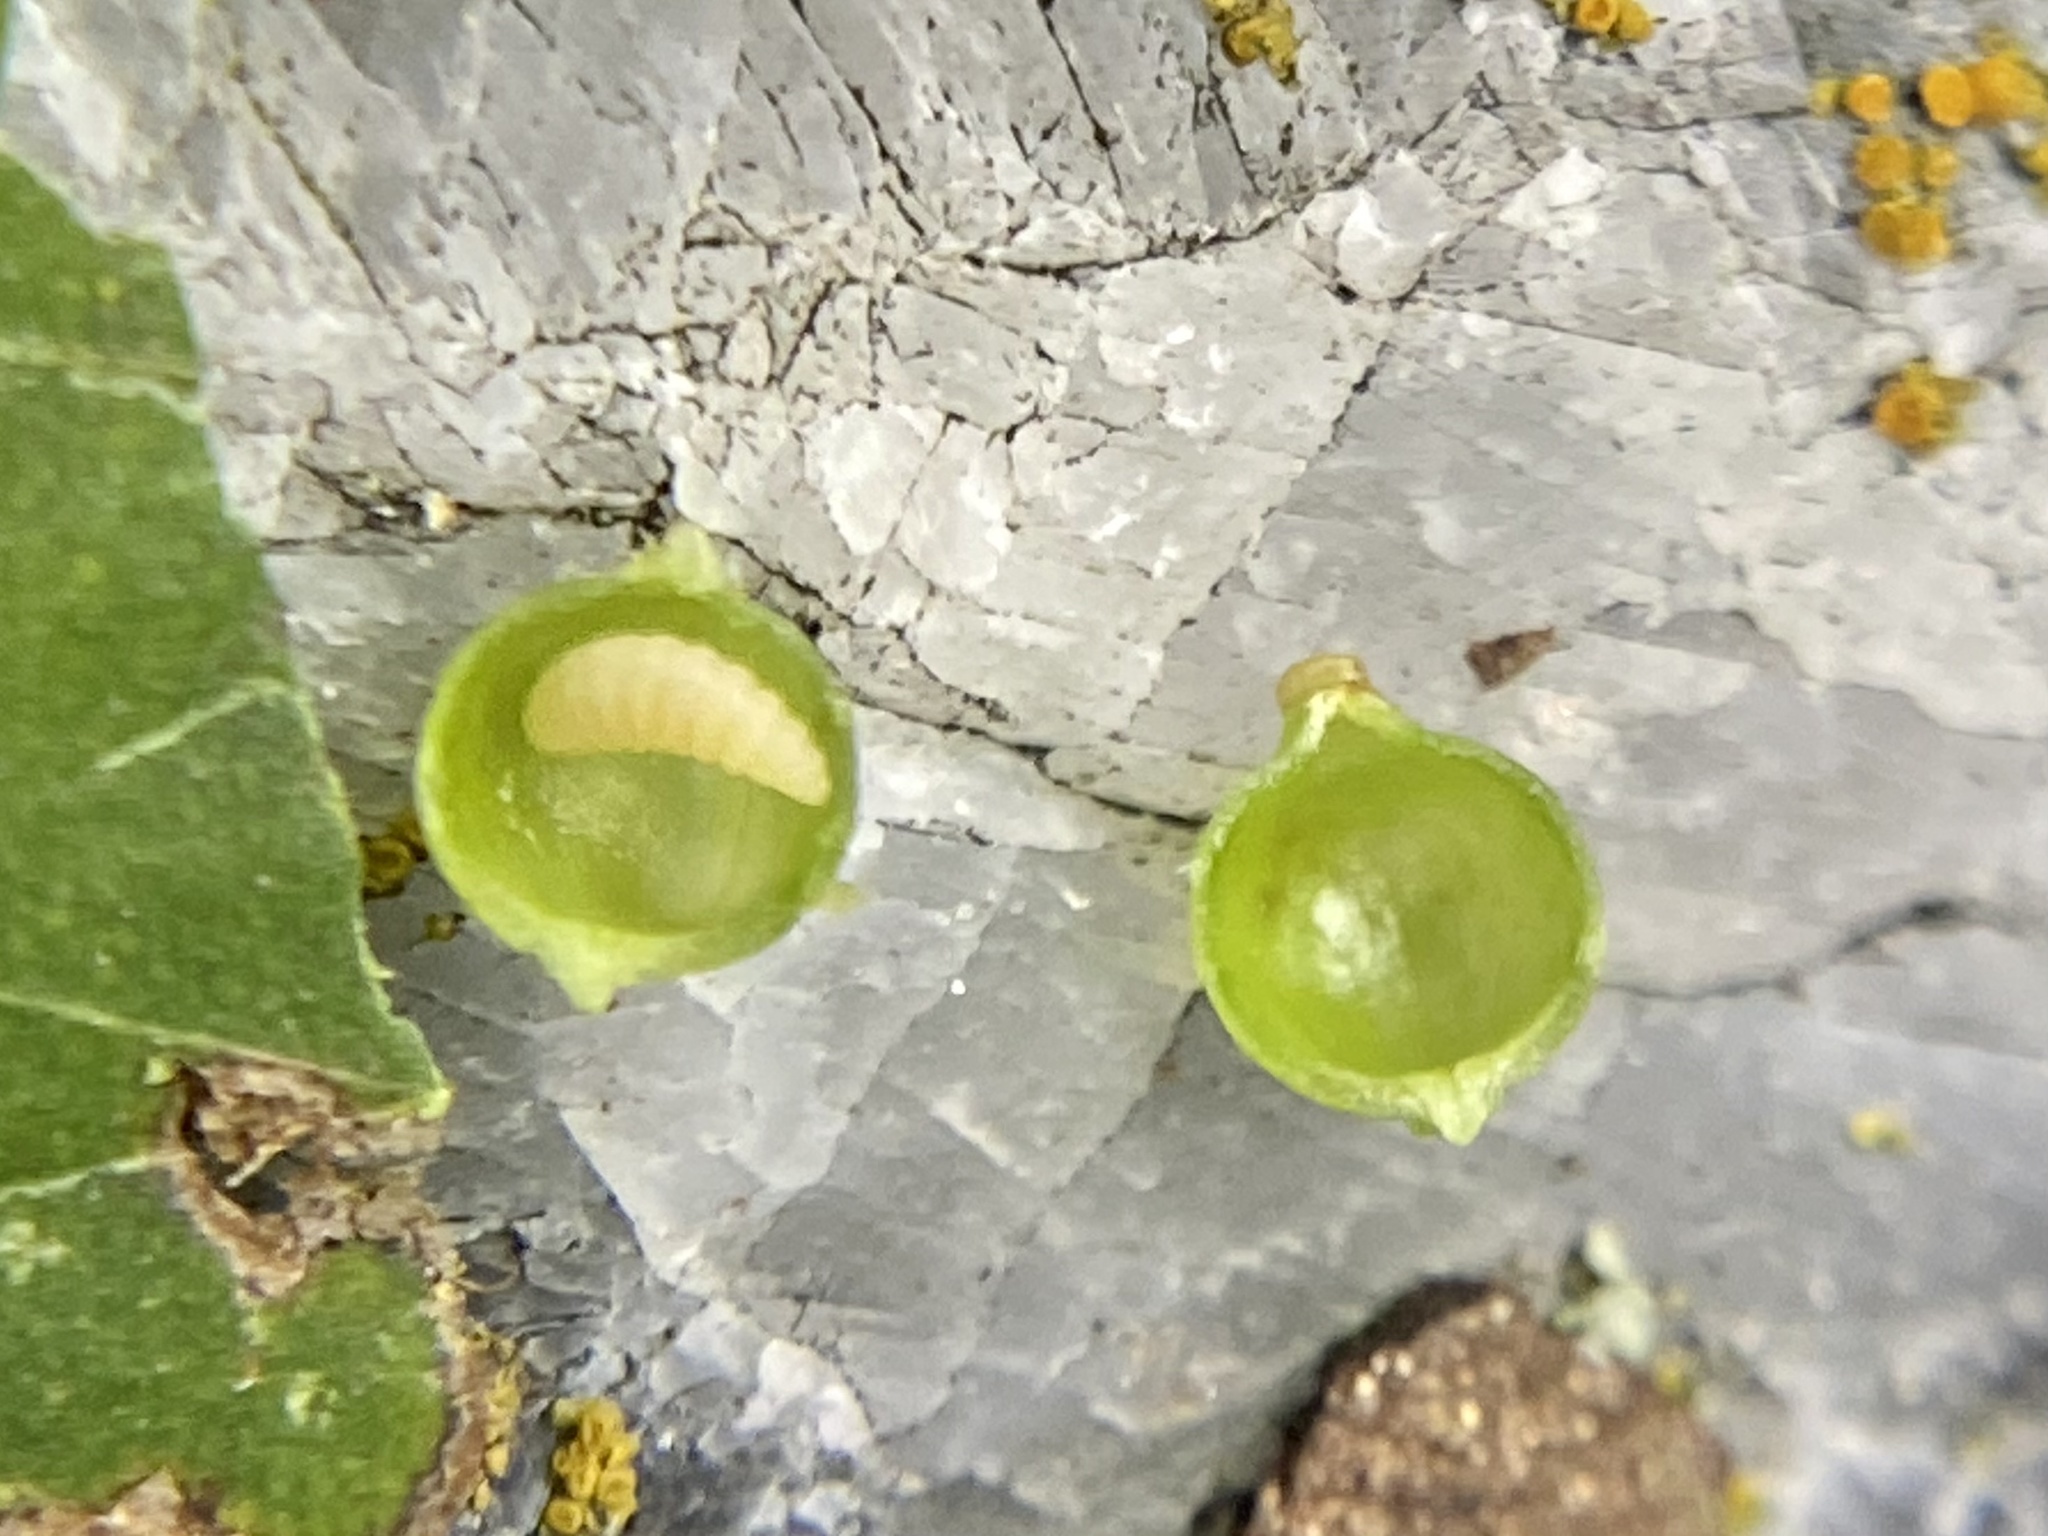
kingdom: Animalia
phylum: Arthropoda
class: Insecta
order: Diptera
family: Cecidomyiidae
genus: Caryomyia
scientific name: Caryomyia leviglobus
